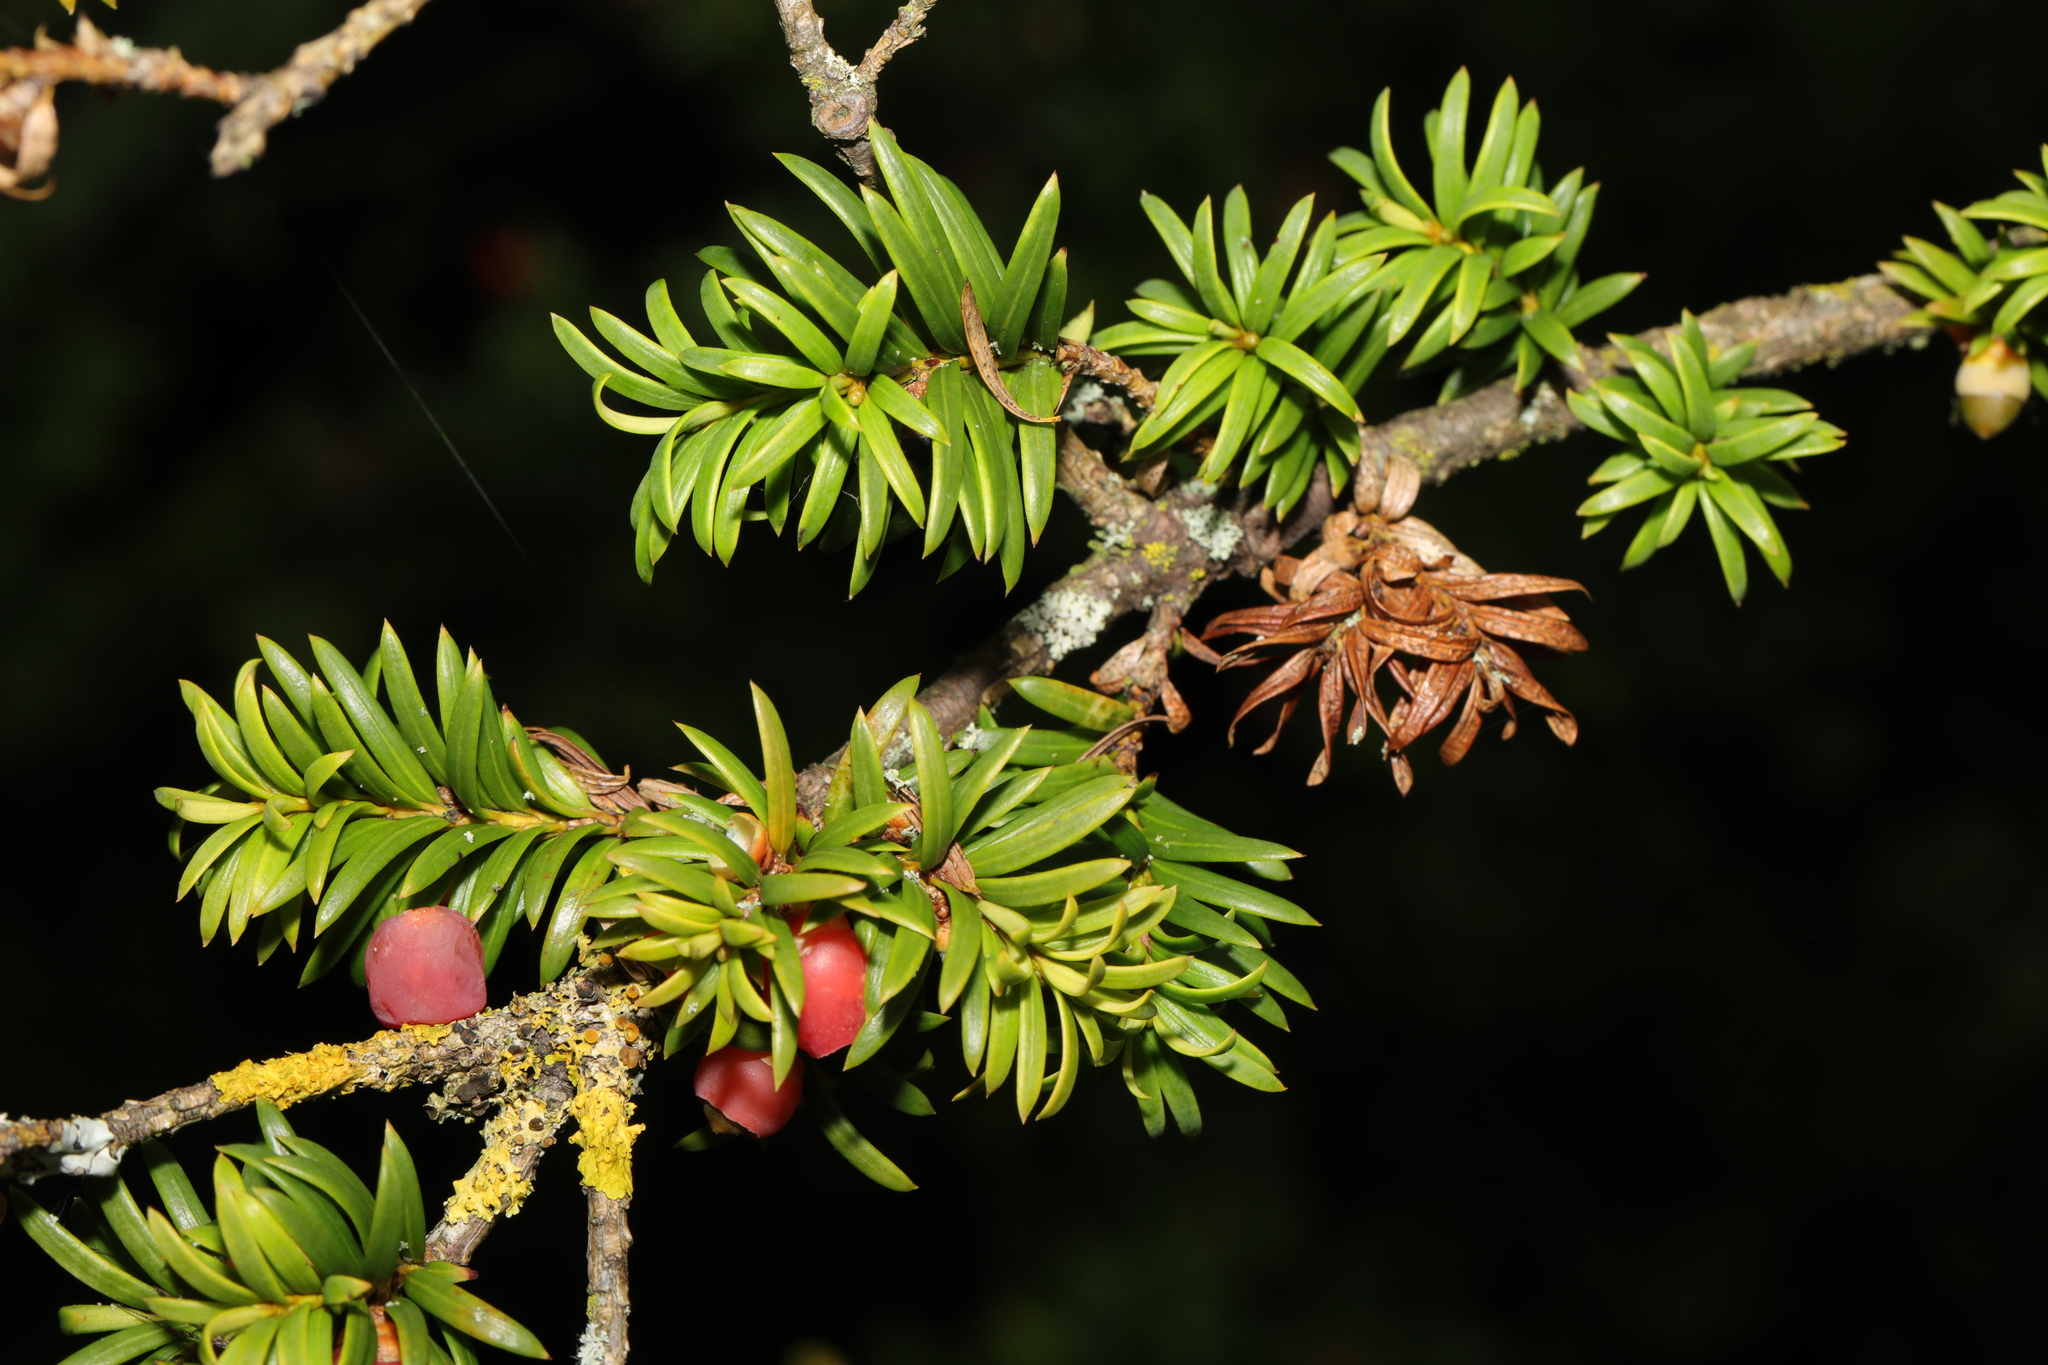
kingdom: Plantae
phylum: Tracheophyta
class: Pinopsida
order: Pinales
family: Taxaceae
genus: Taxus
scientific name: Taxus baccata
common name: Yew
